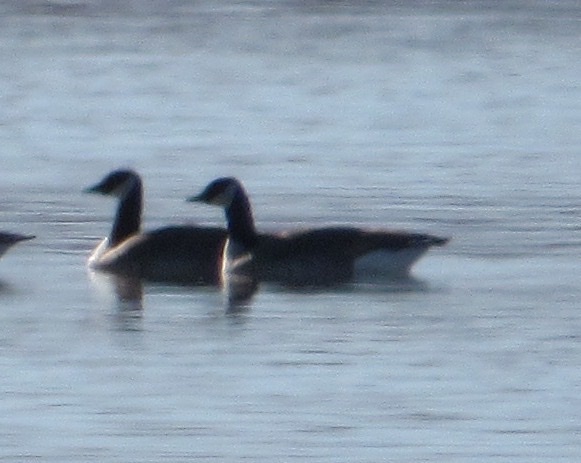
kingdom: Animalia
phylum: Chordata
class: Aves
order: Anseriformes
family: Anatidae
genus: Branta
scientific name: Branta canadensis
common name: Canada goose
